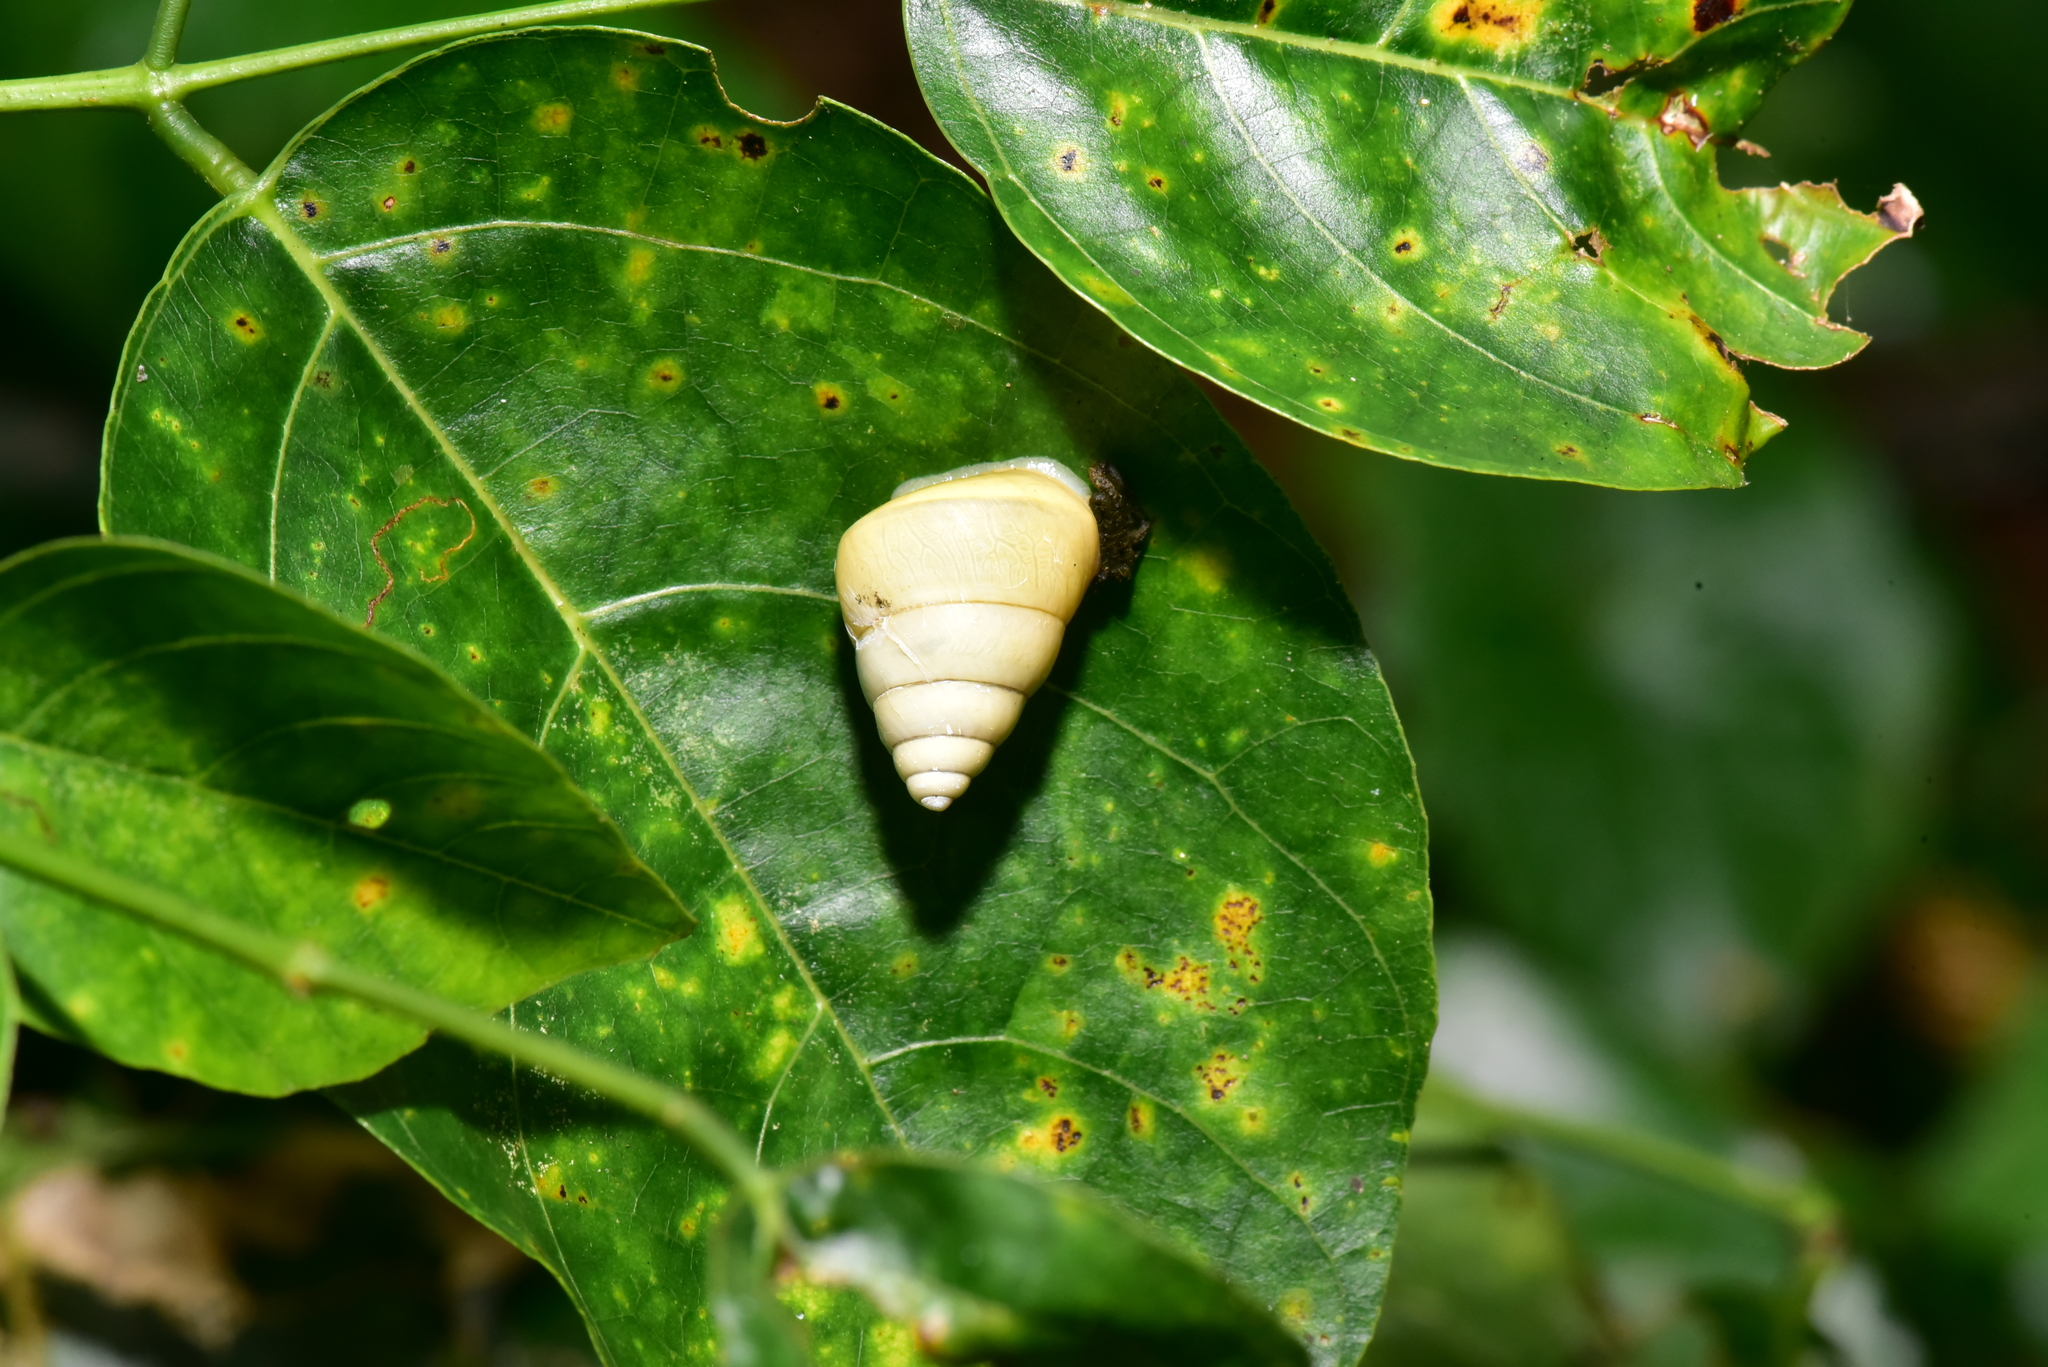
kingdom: Animalia
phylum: Mollusca
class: Gastropoda
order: Stylommatophora
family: Camaenidae
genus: Satsuma
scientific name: Satsuma luteolella
